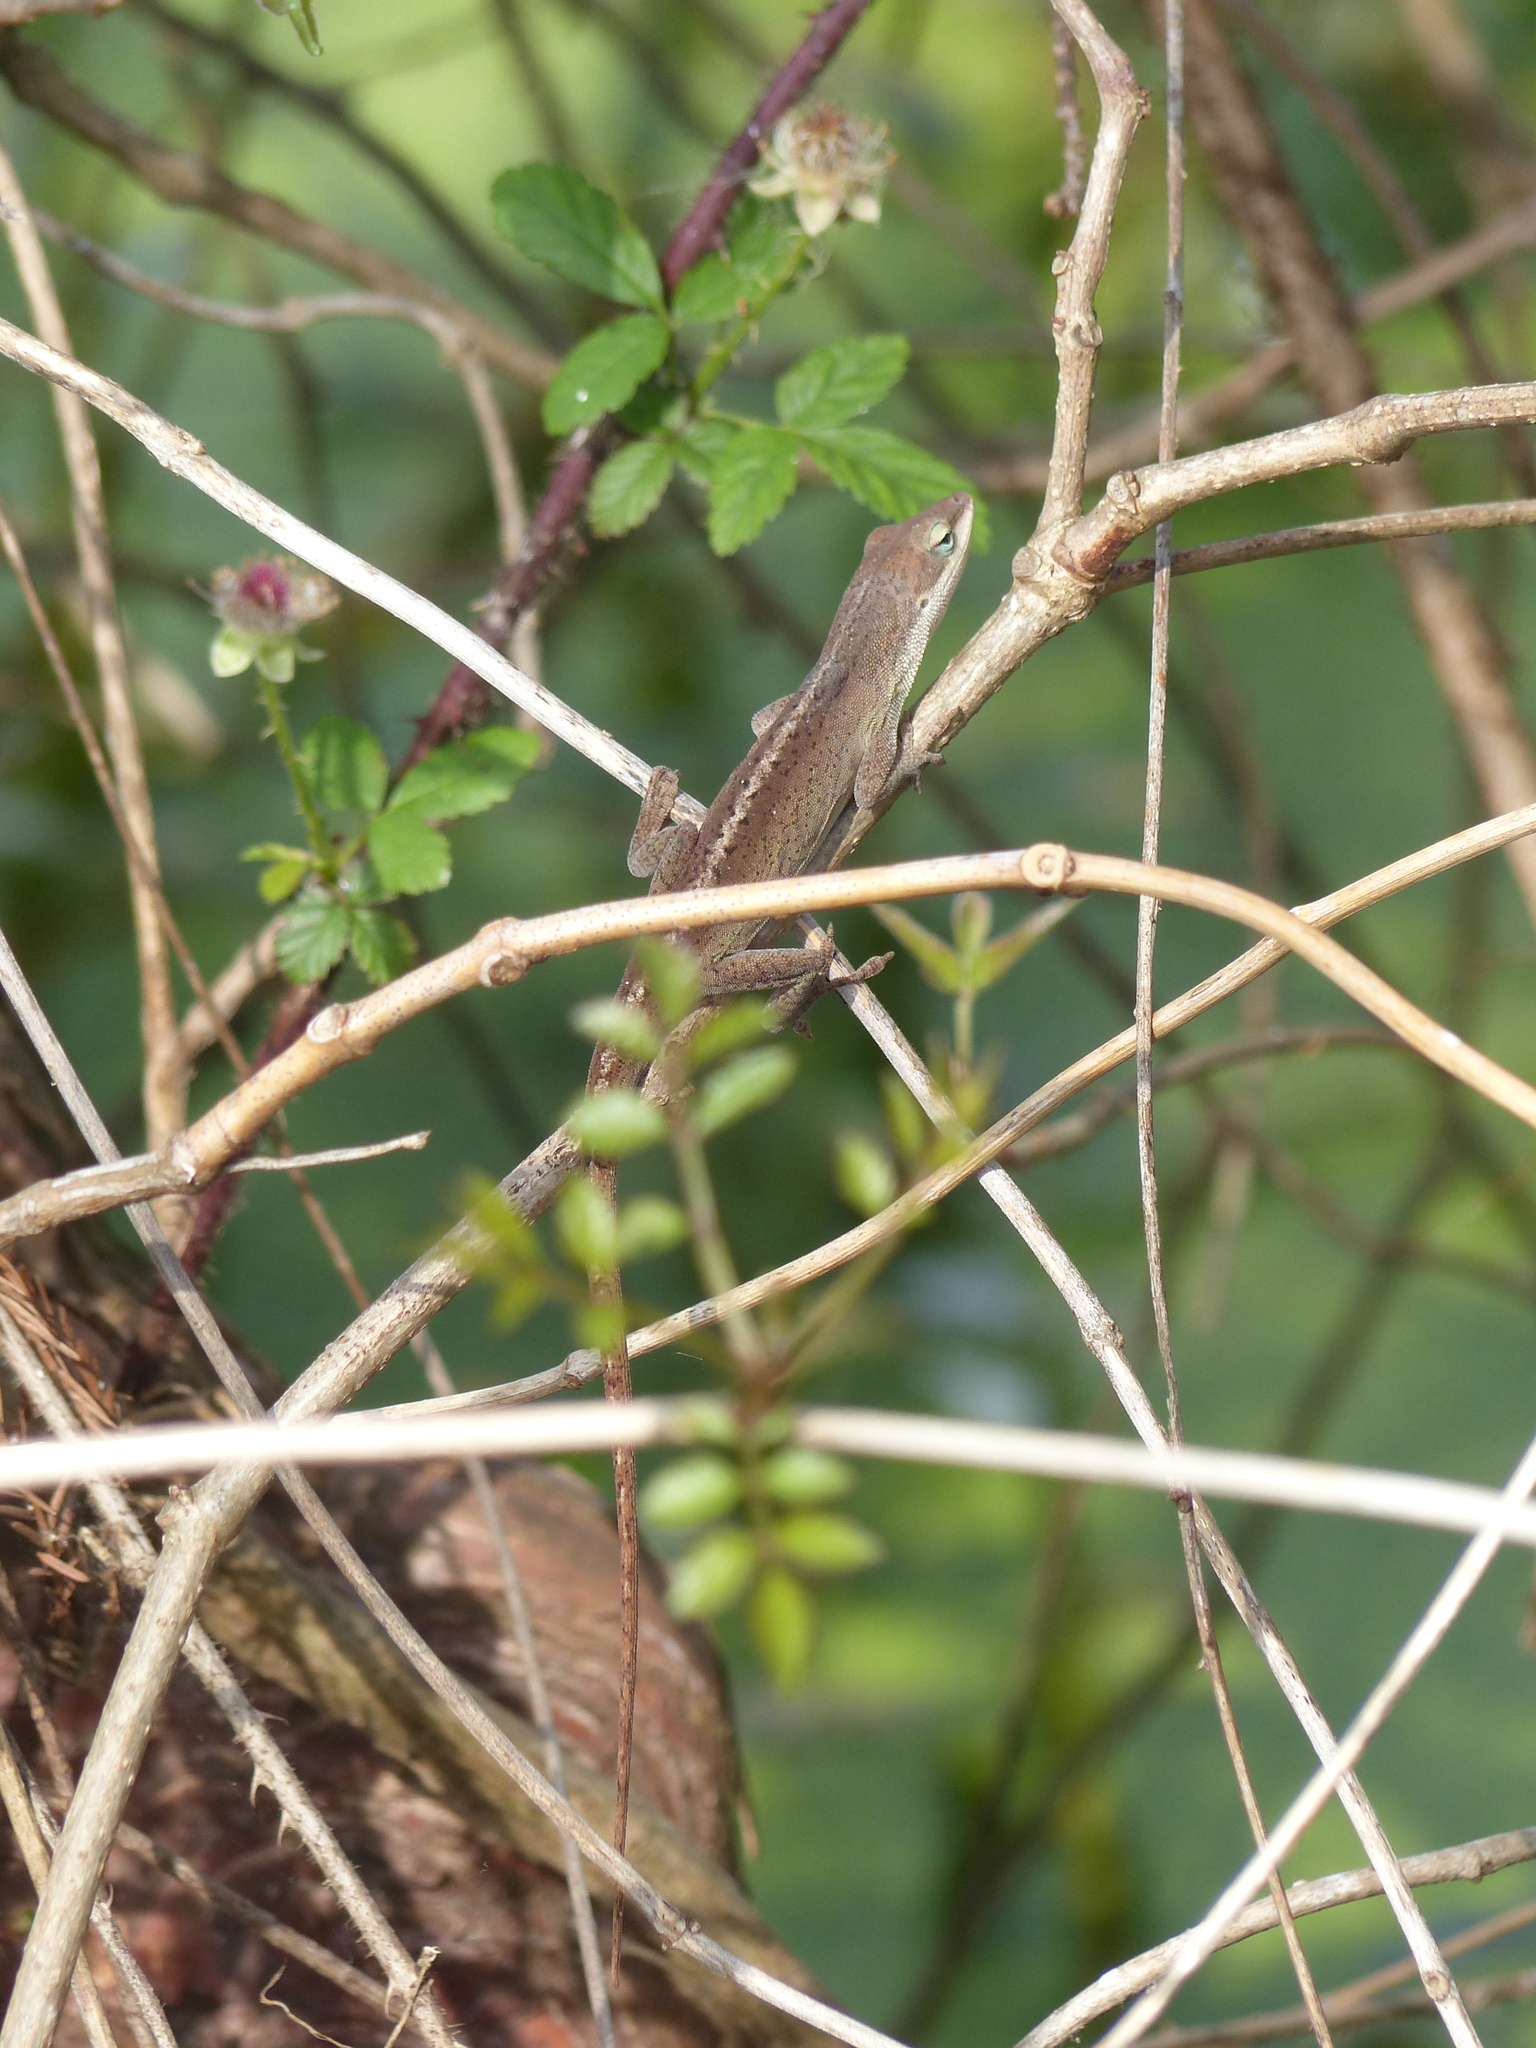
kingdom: Animalia
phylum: Chordata
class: Squamata
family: Dactyloidae
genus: Anolis
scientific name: Anolis carolinensis
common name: Green anole
